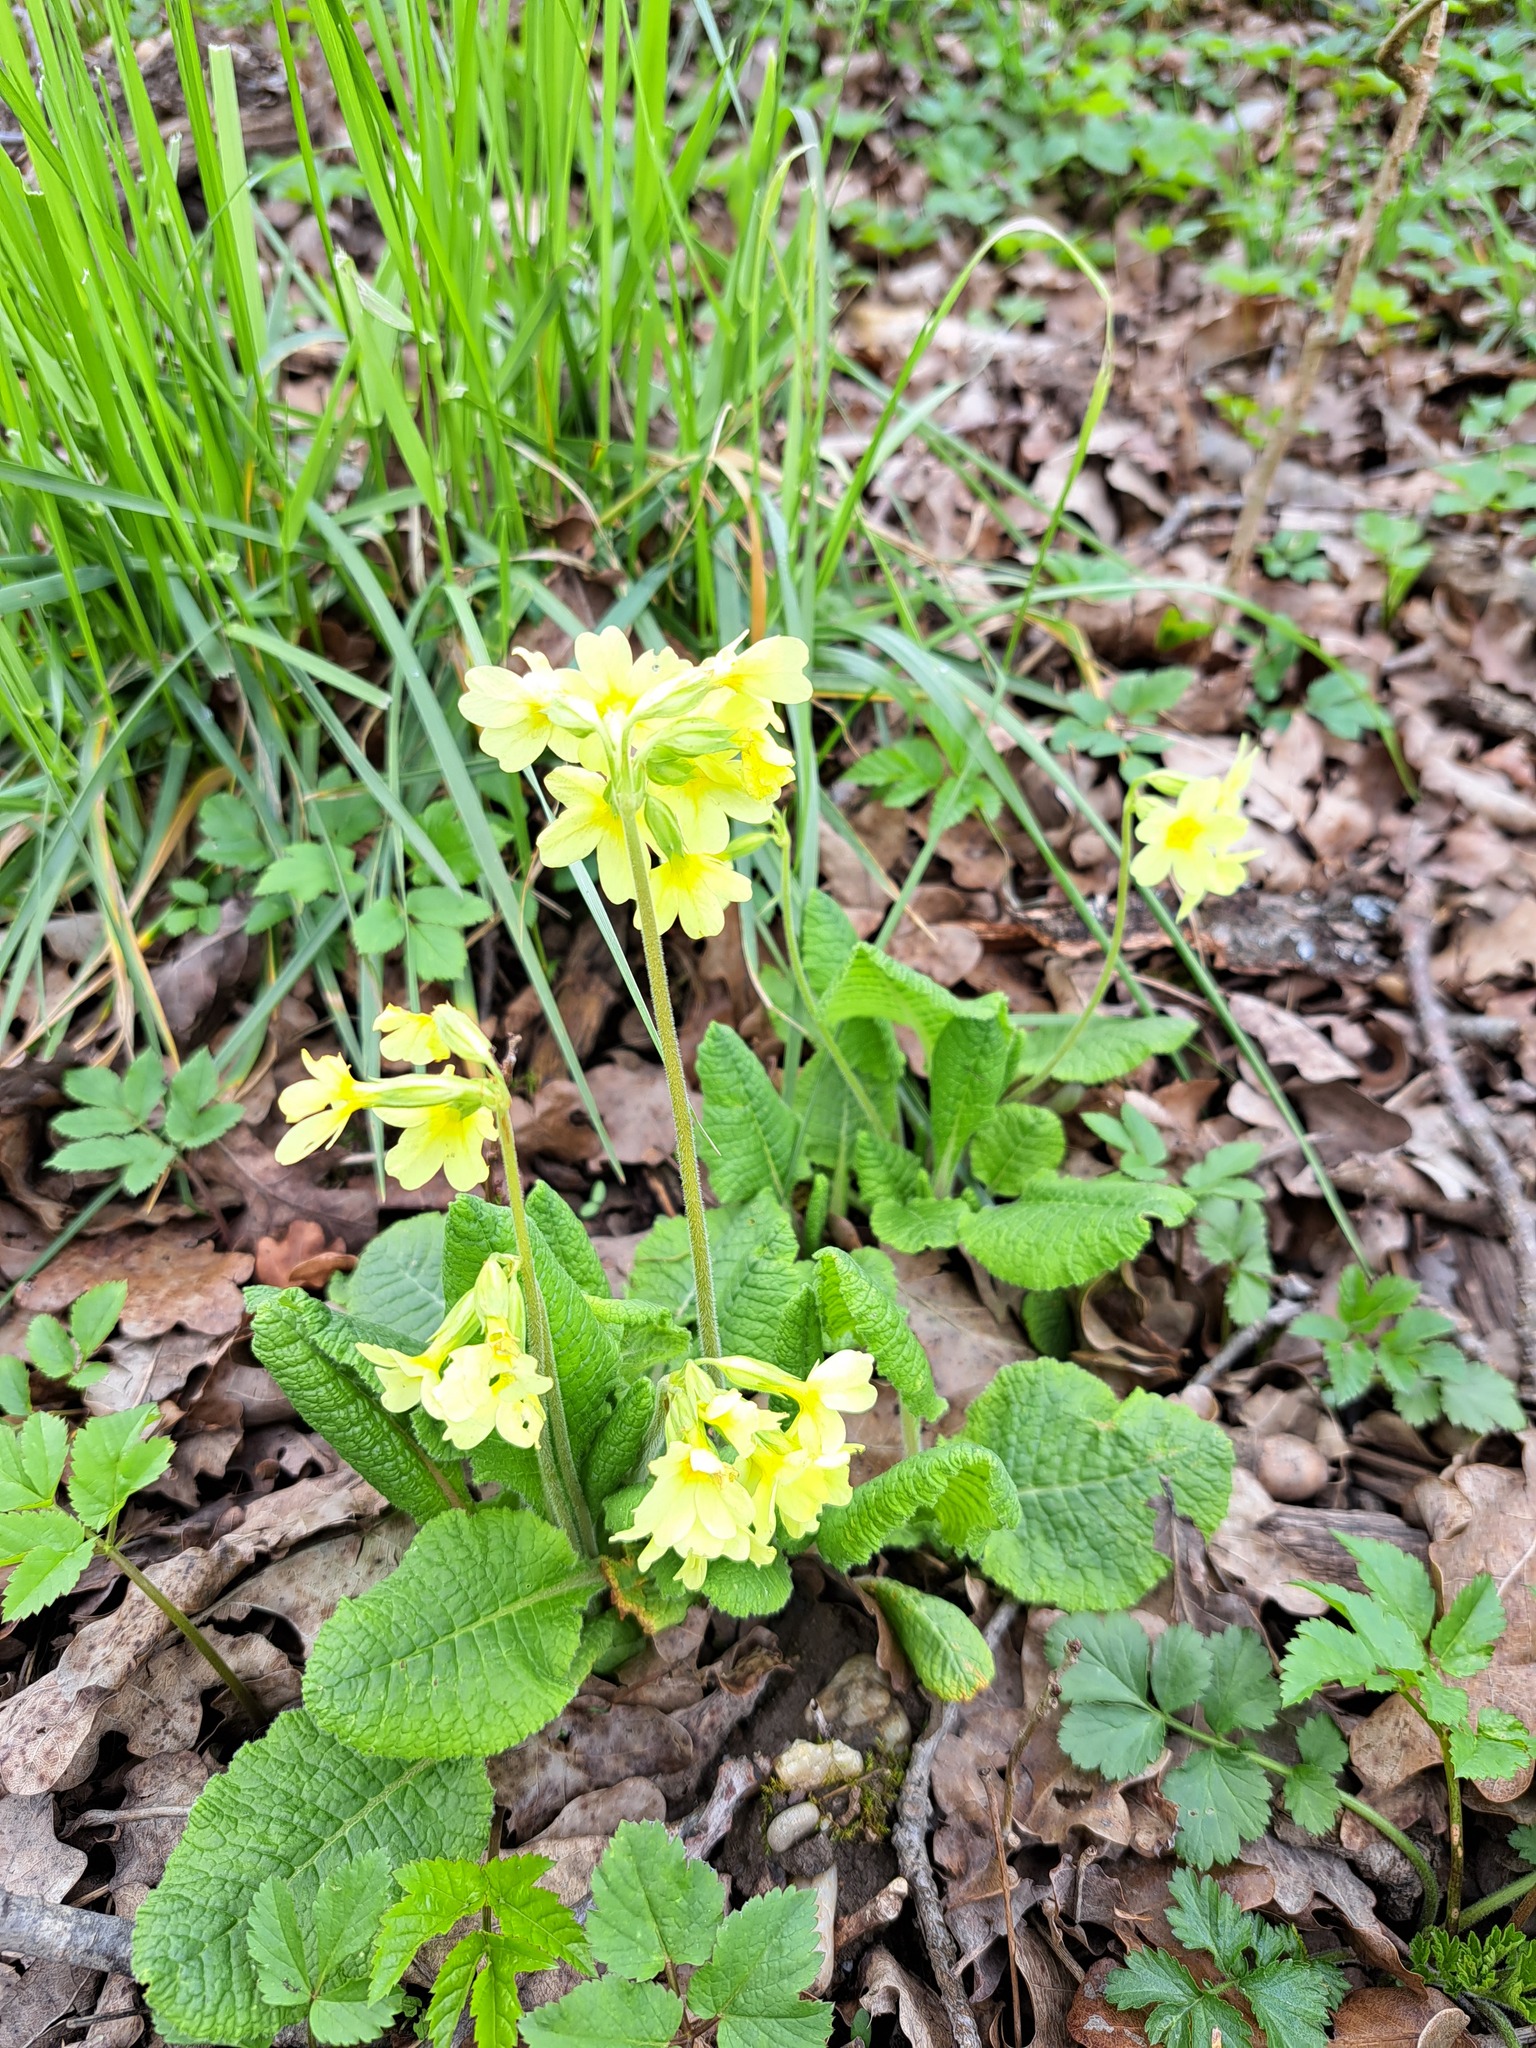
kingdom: Plantae
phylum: Tracheophyta
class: Magnoliopsida
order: Ericales
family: Primulaceae
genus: Primula
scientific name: Primula elatior
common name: Oxlip
